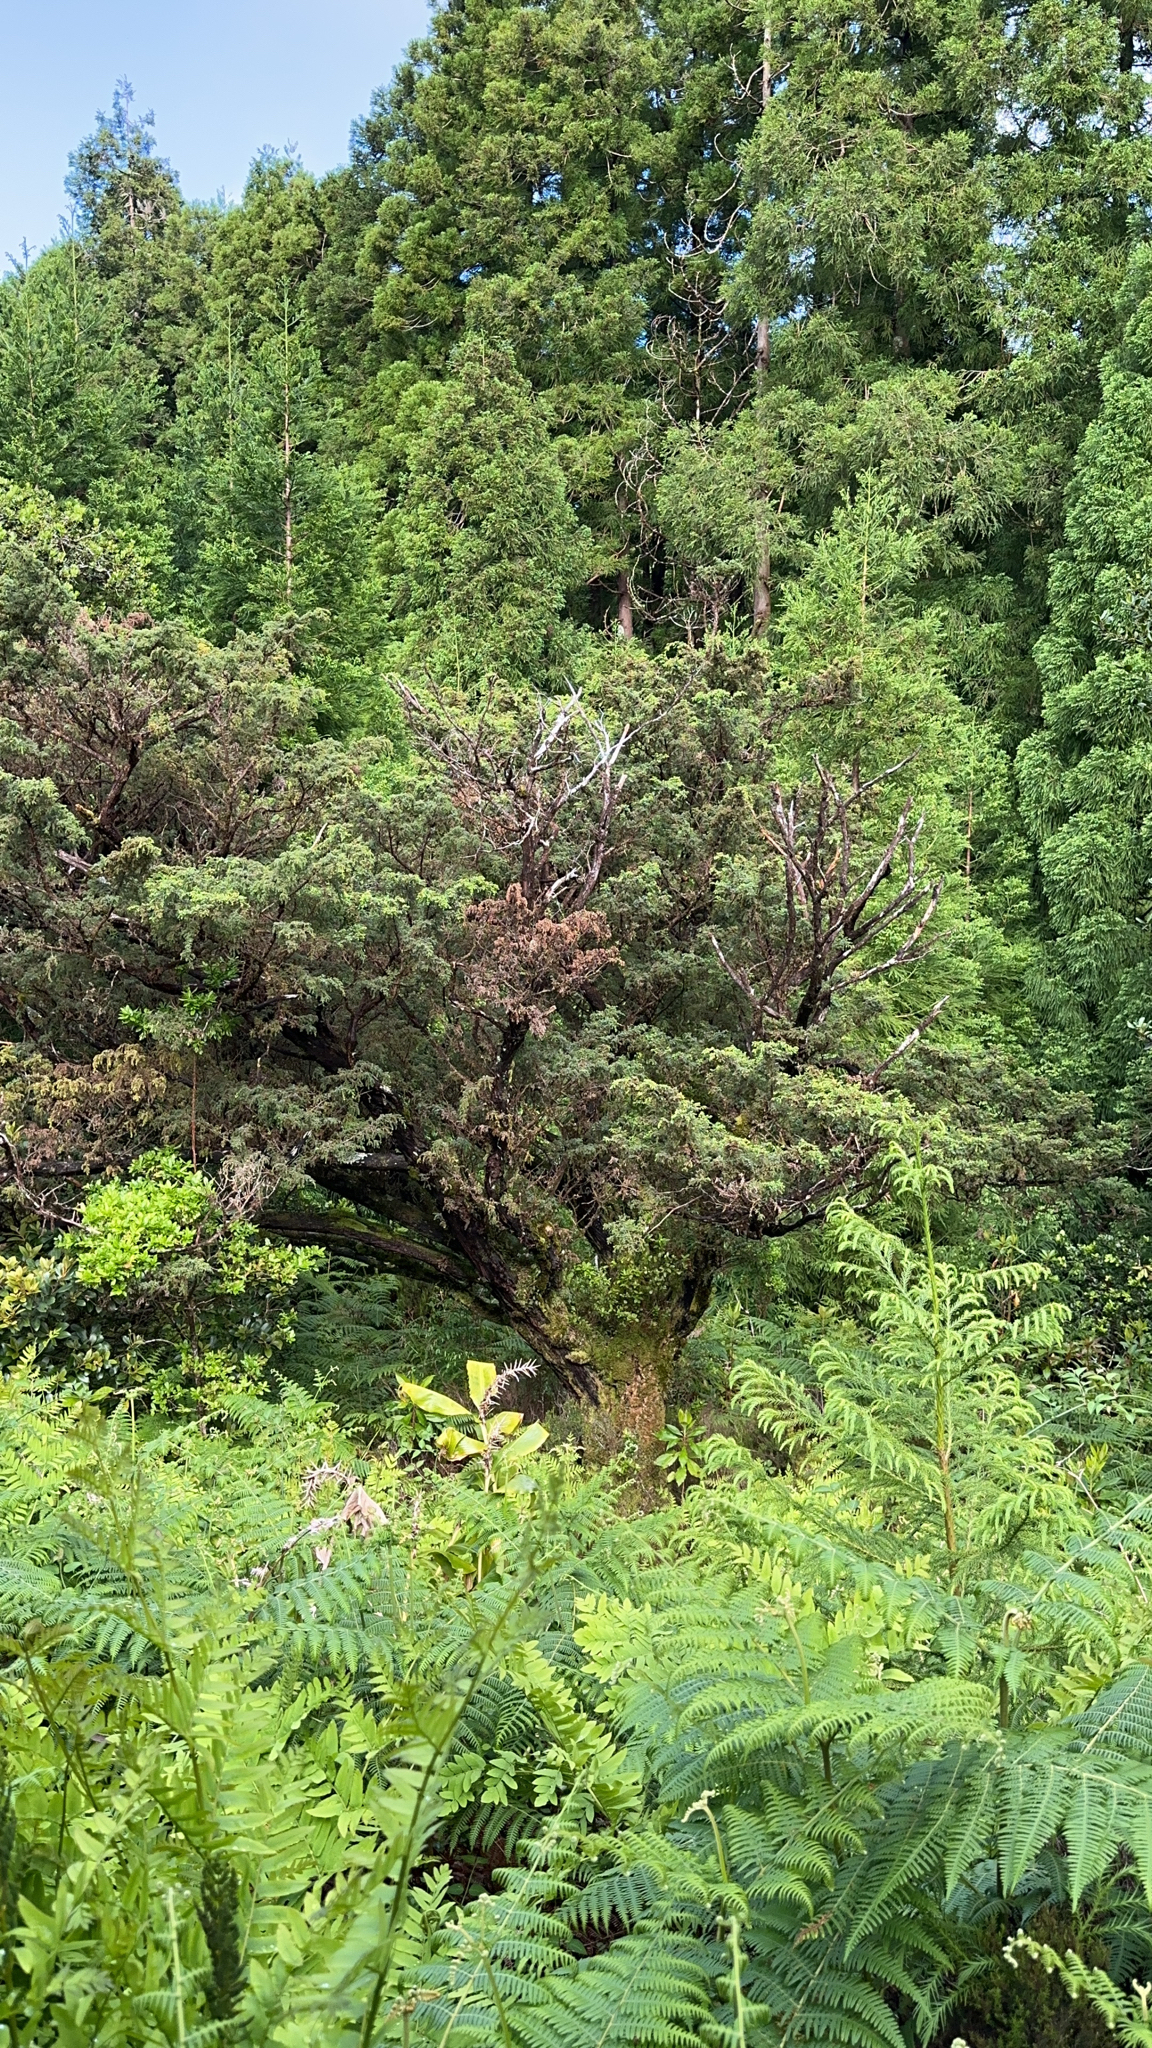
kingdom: Plantae
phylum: Tracheophyta
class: Pinopsida
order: Pinales
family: Cupressaceae
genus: Juniperus
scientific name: Juniperus brevifolia
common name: Azores juniper
